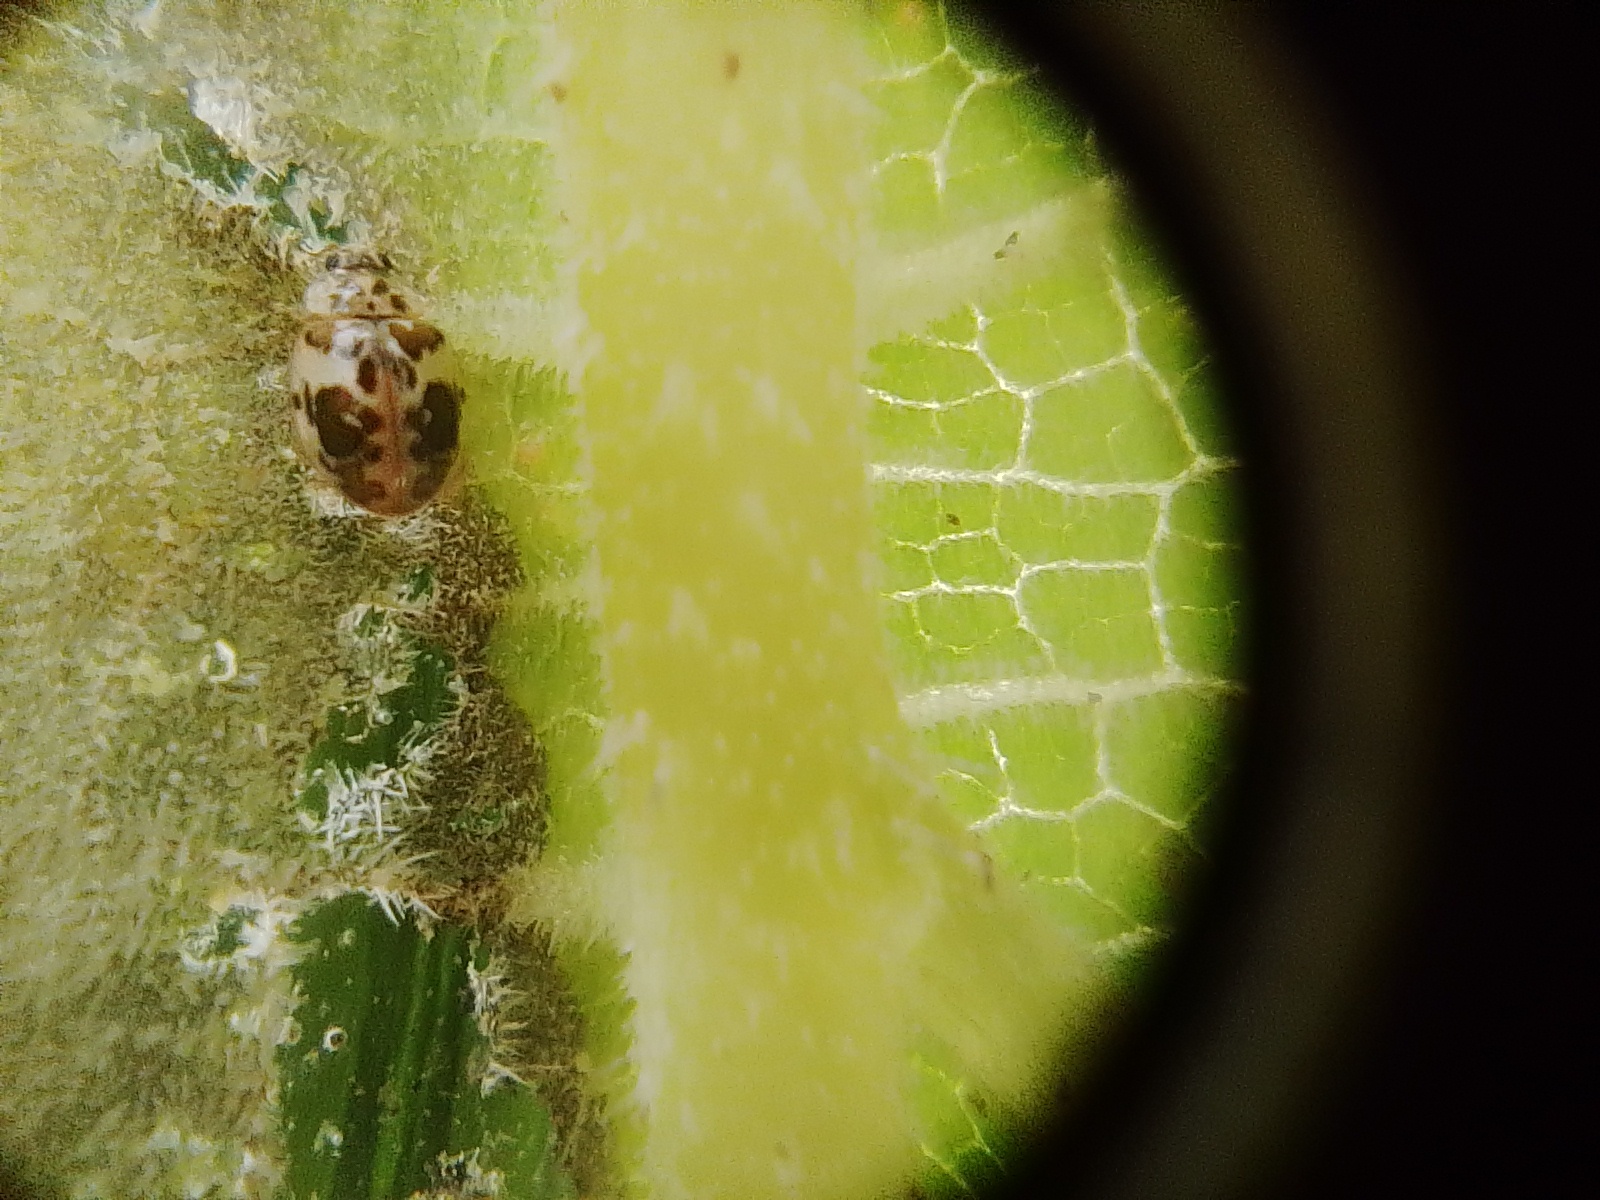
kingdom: Animalia
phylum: Arthropoda
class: Insecta
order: Coleoptera
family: Coccinellidae
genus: Psyllobora
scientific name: Psyllobora
